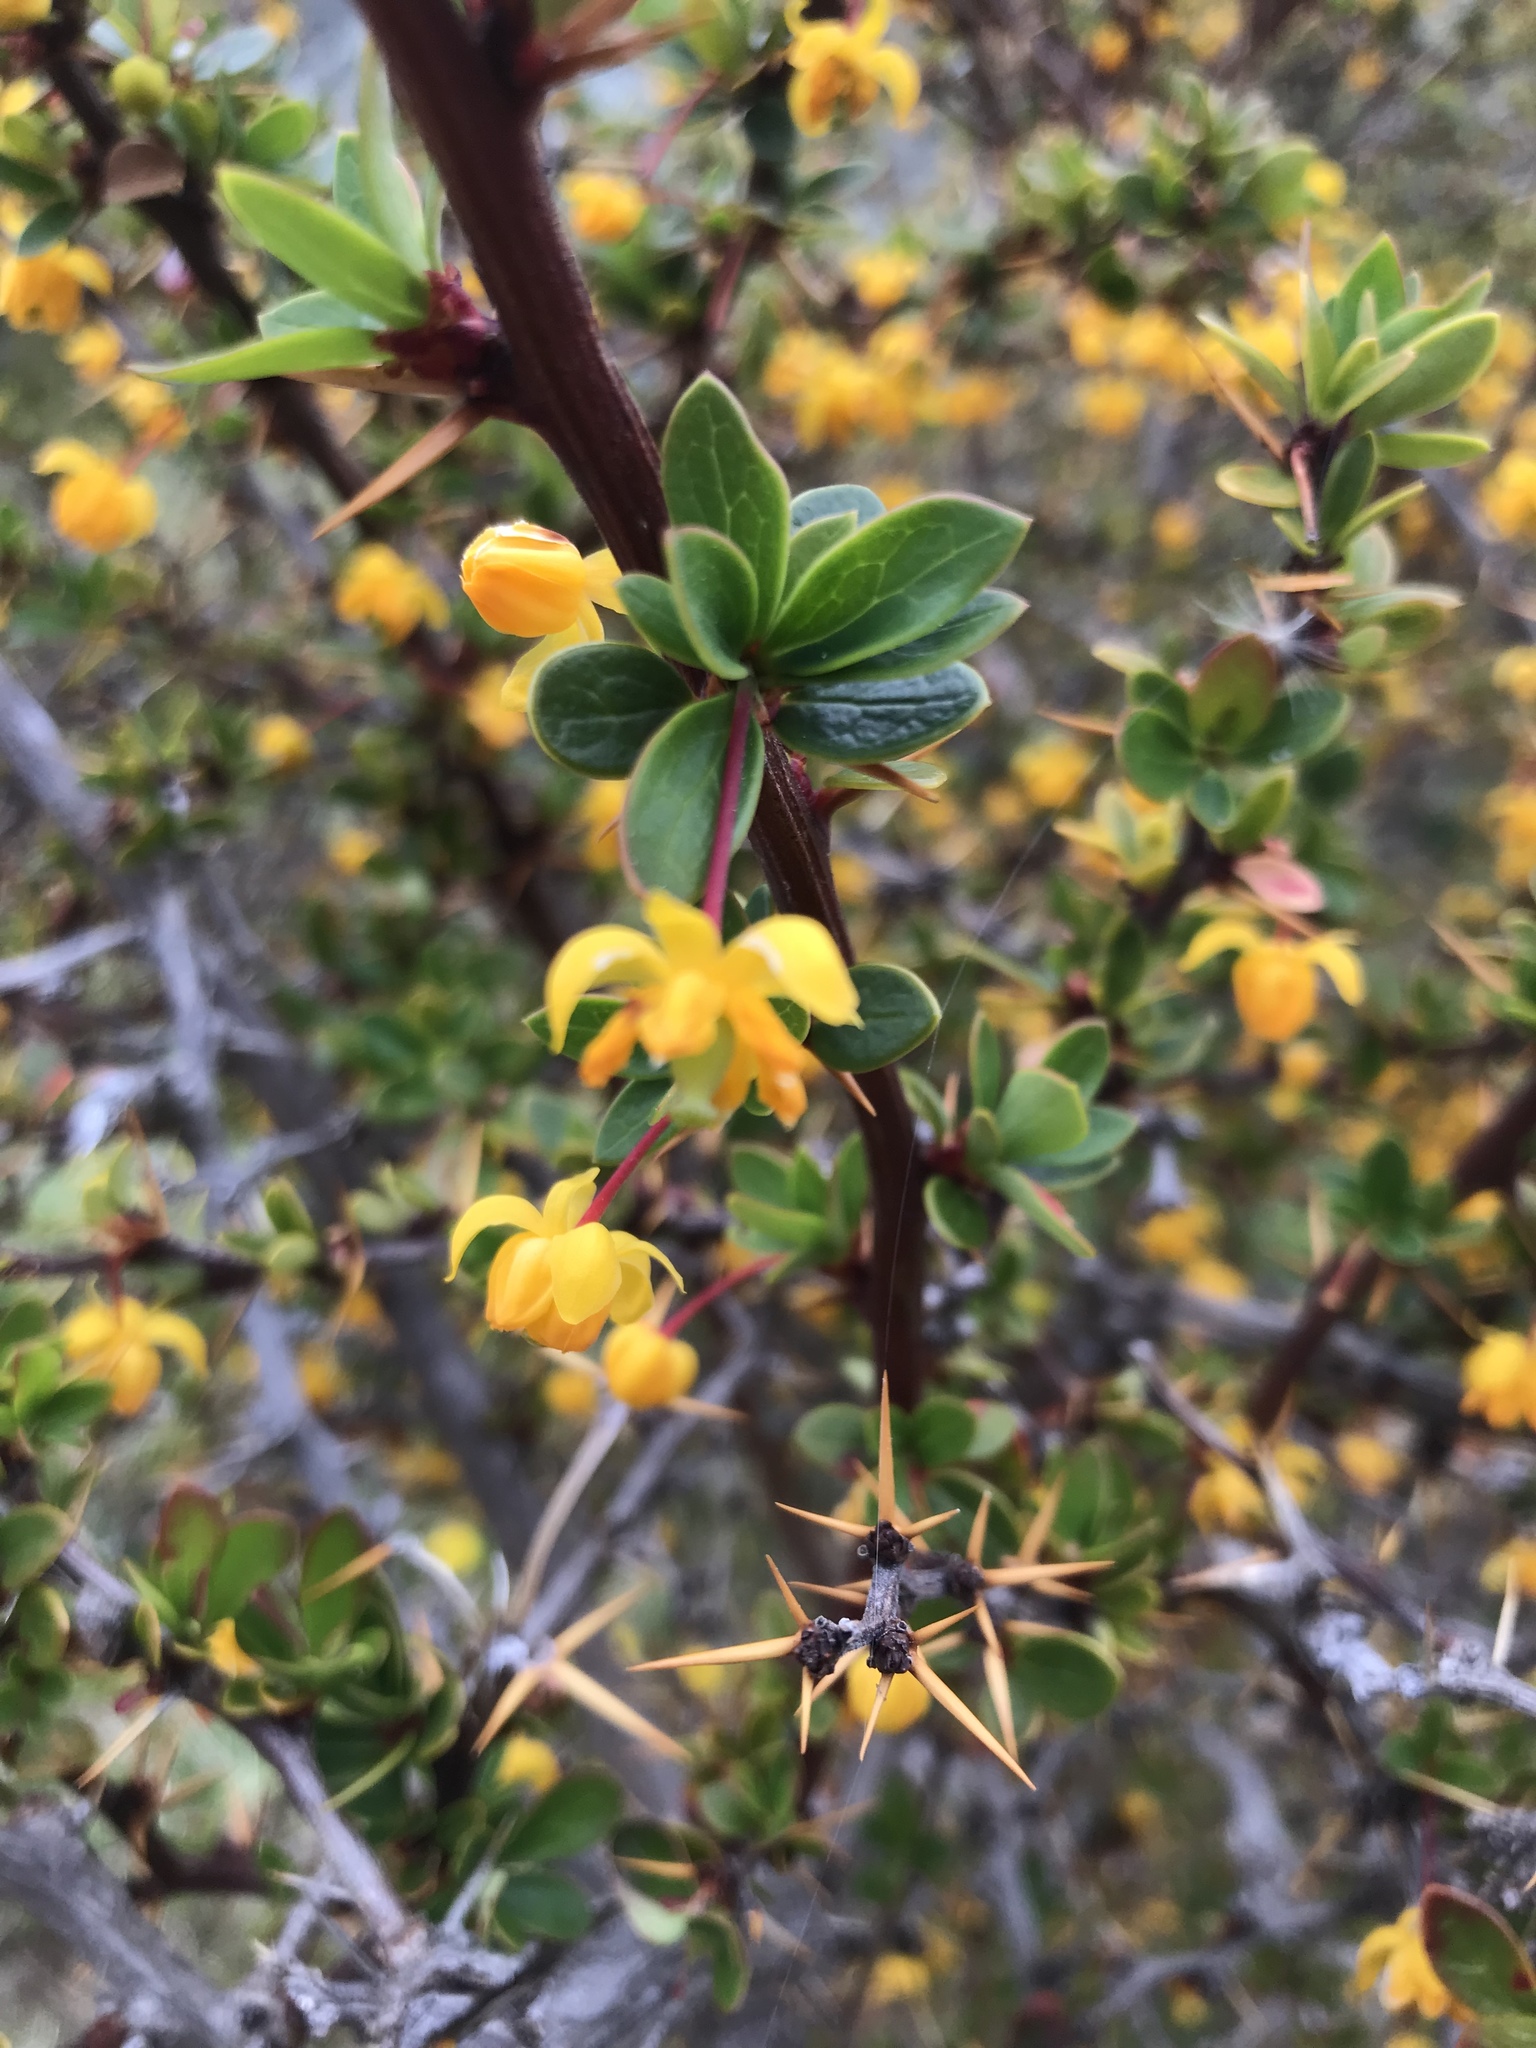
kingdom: Plantae
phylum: Tracheophyta
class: Magnoliopsida
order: Ranunculales
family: Berberidaceae
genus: Berberis
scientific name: Berberis microphylla
